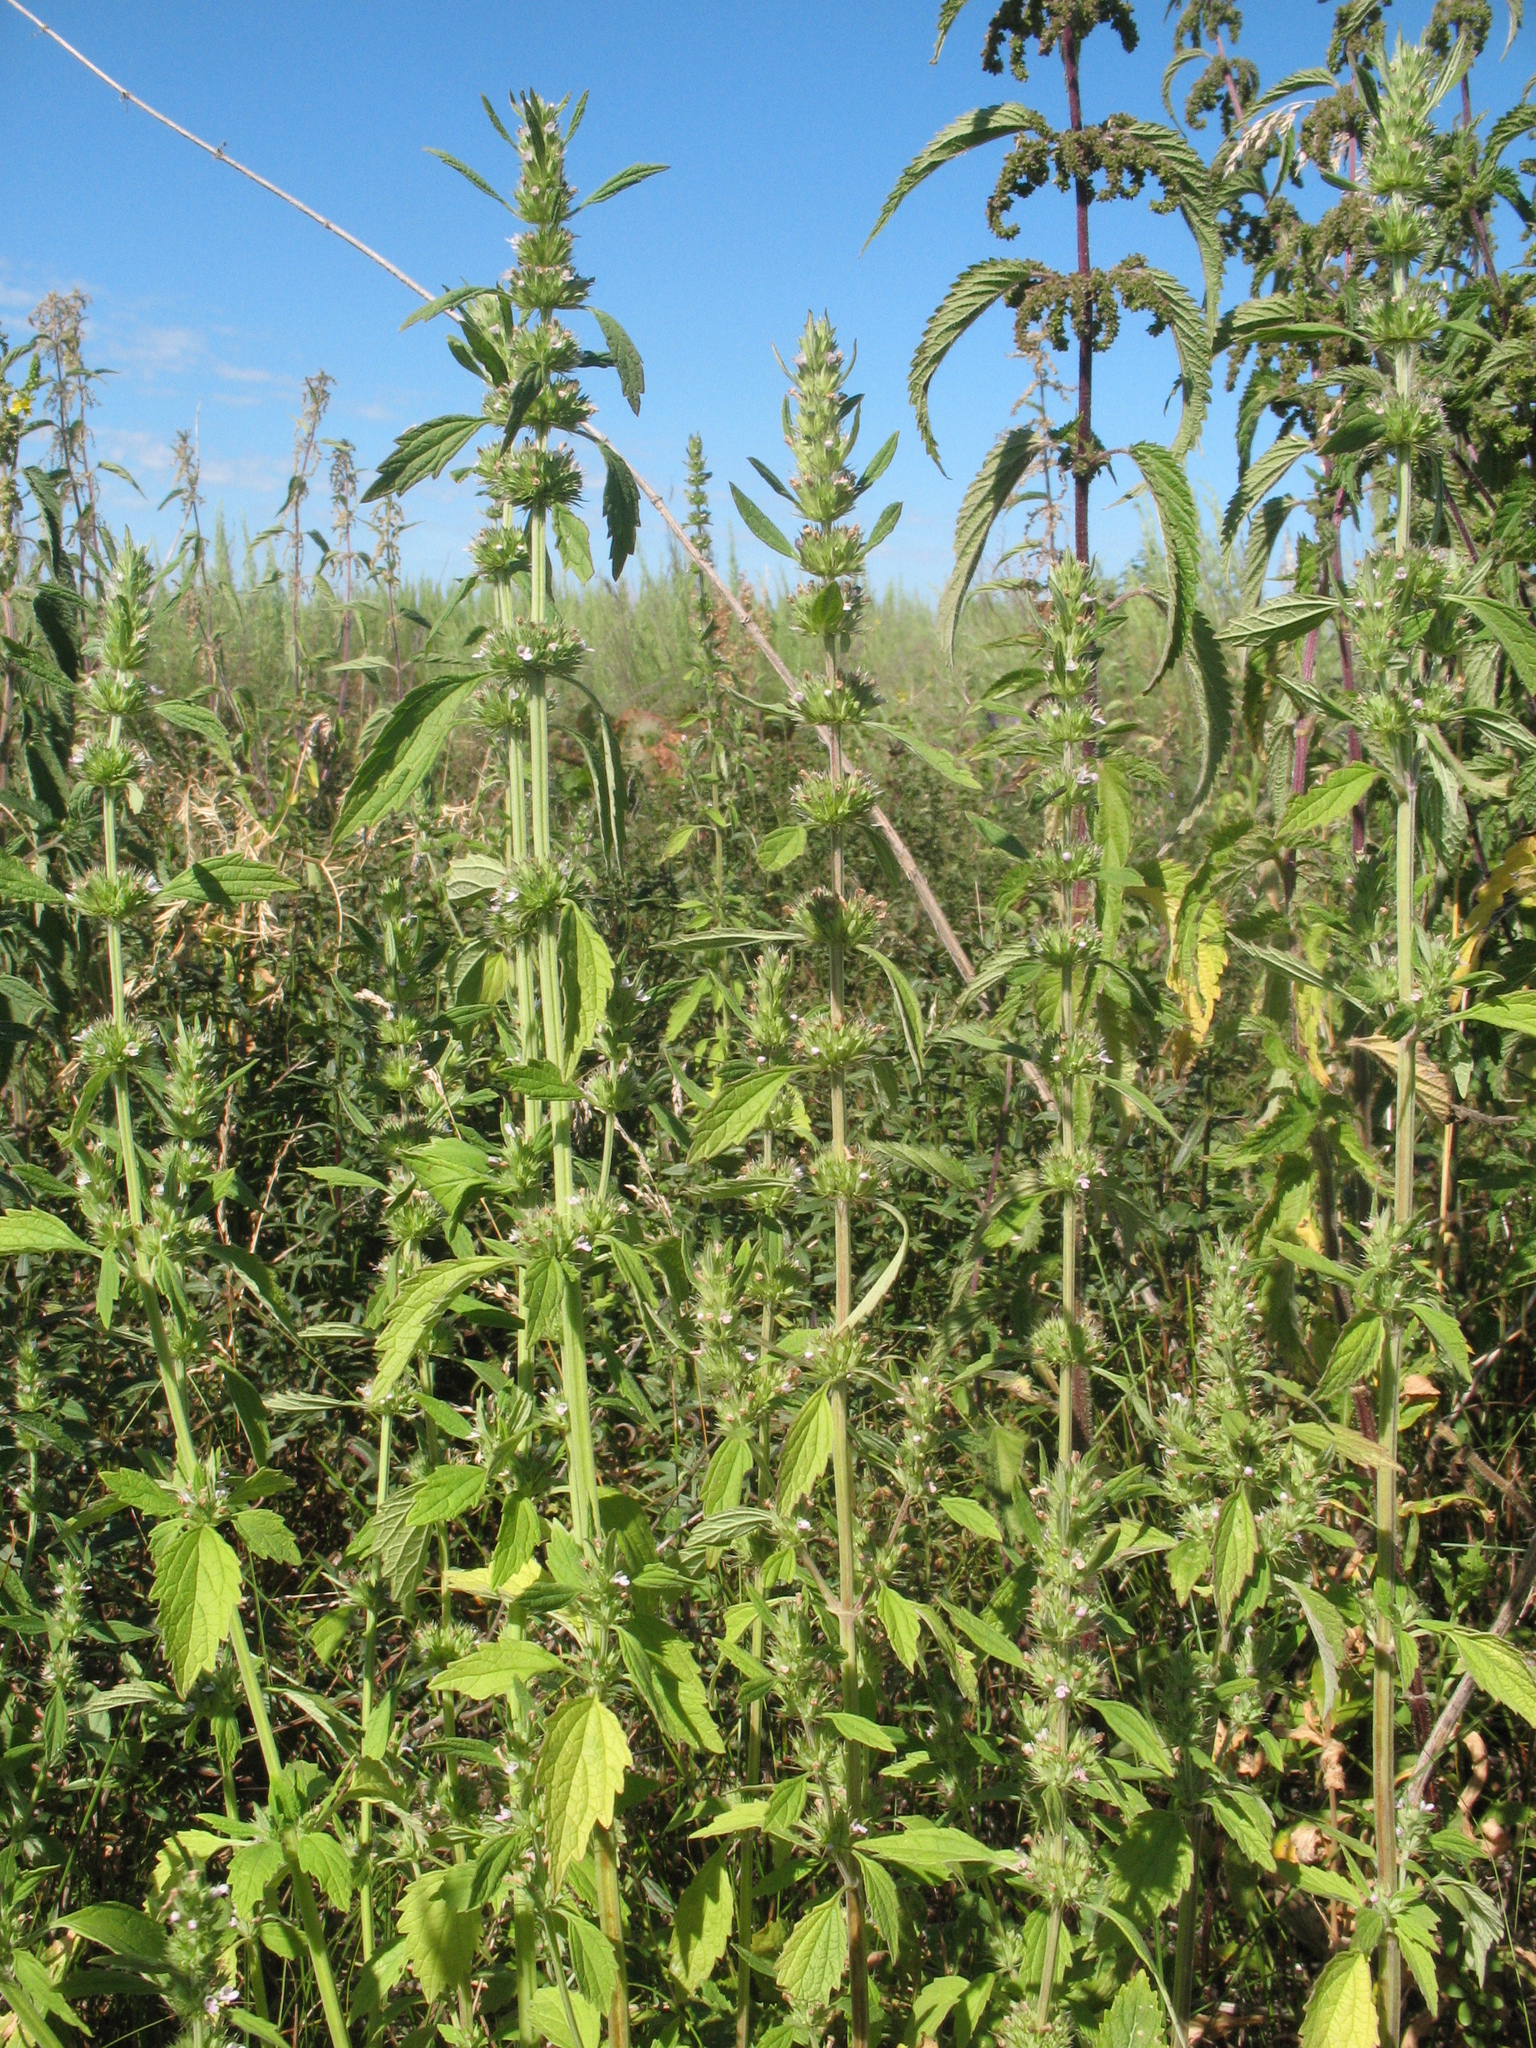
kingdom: Plantae
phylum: Tracheophyta
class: Magnoliopsida
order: Lamiales
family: Lamiaceae
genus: Chaiturus
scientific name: Chaiturus marrubiastrum
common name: Lion's tail
